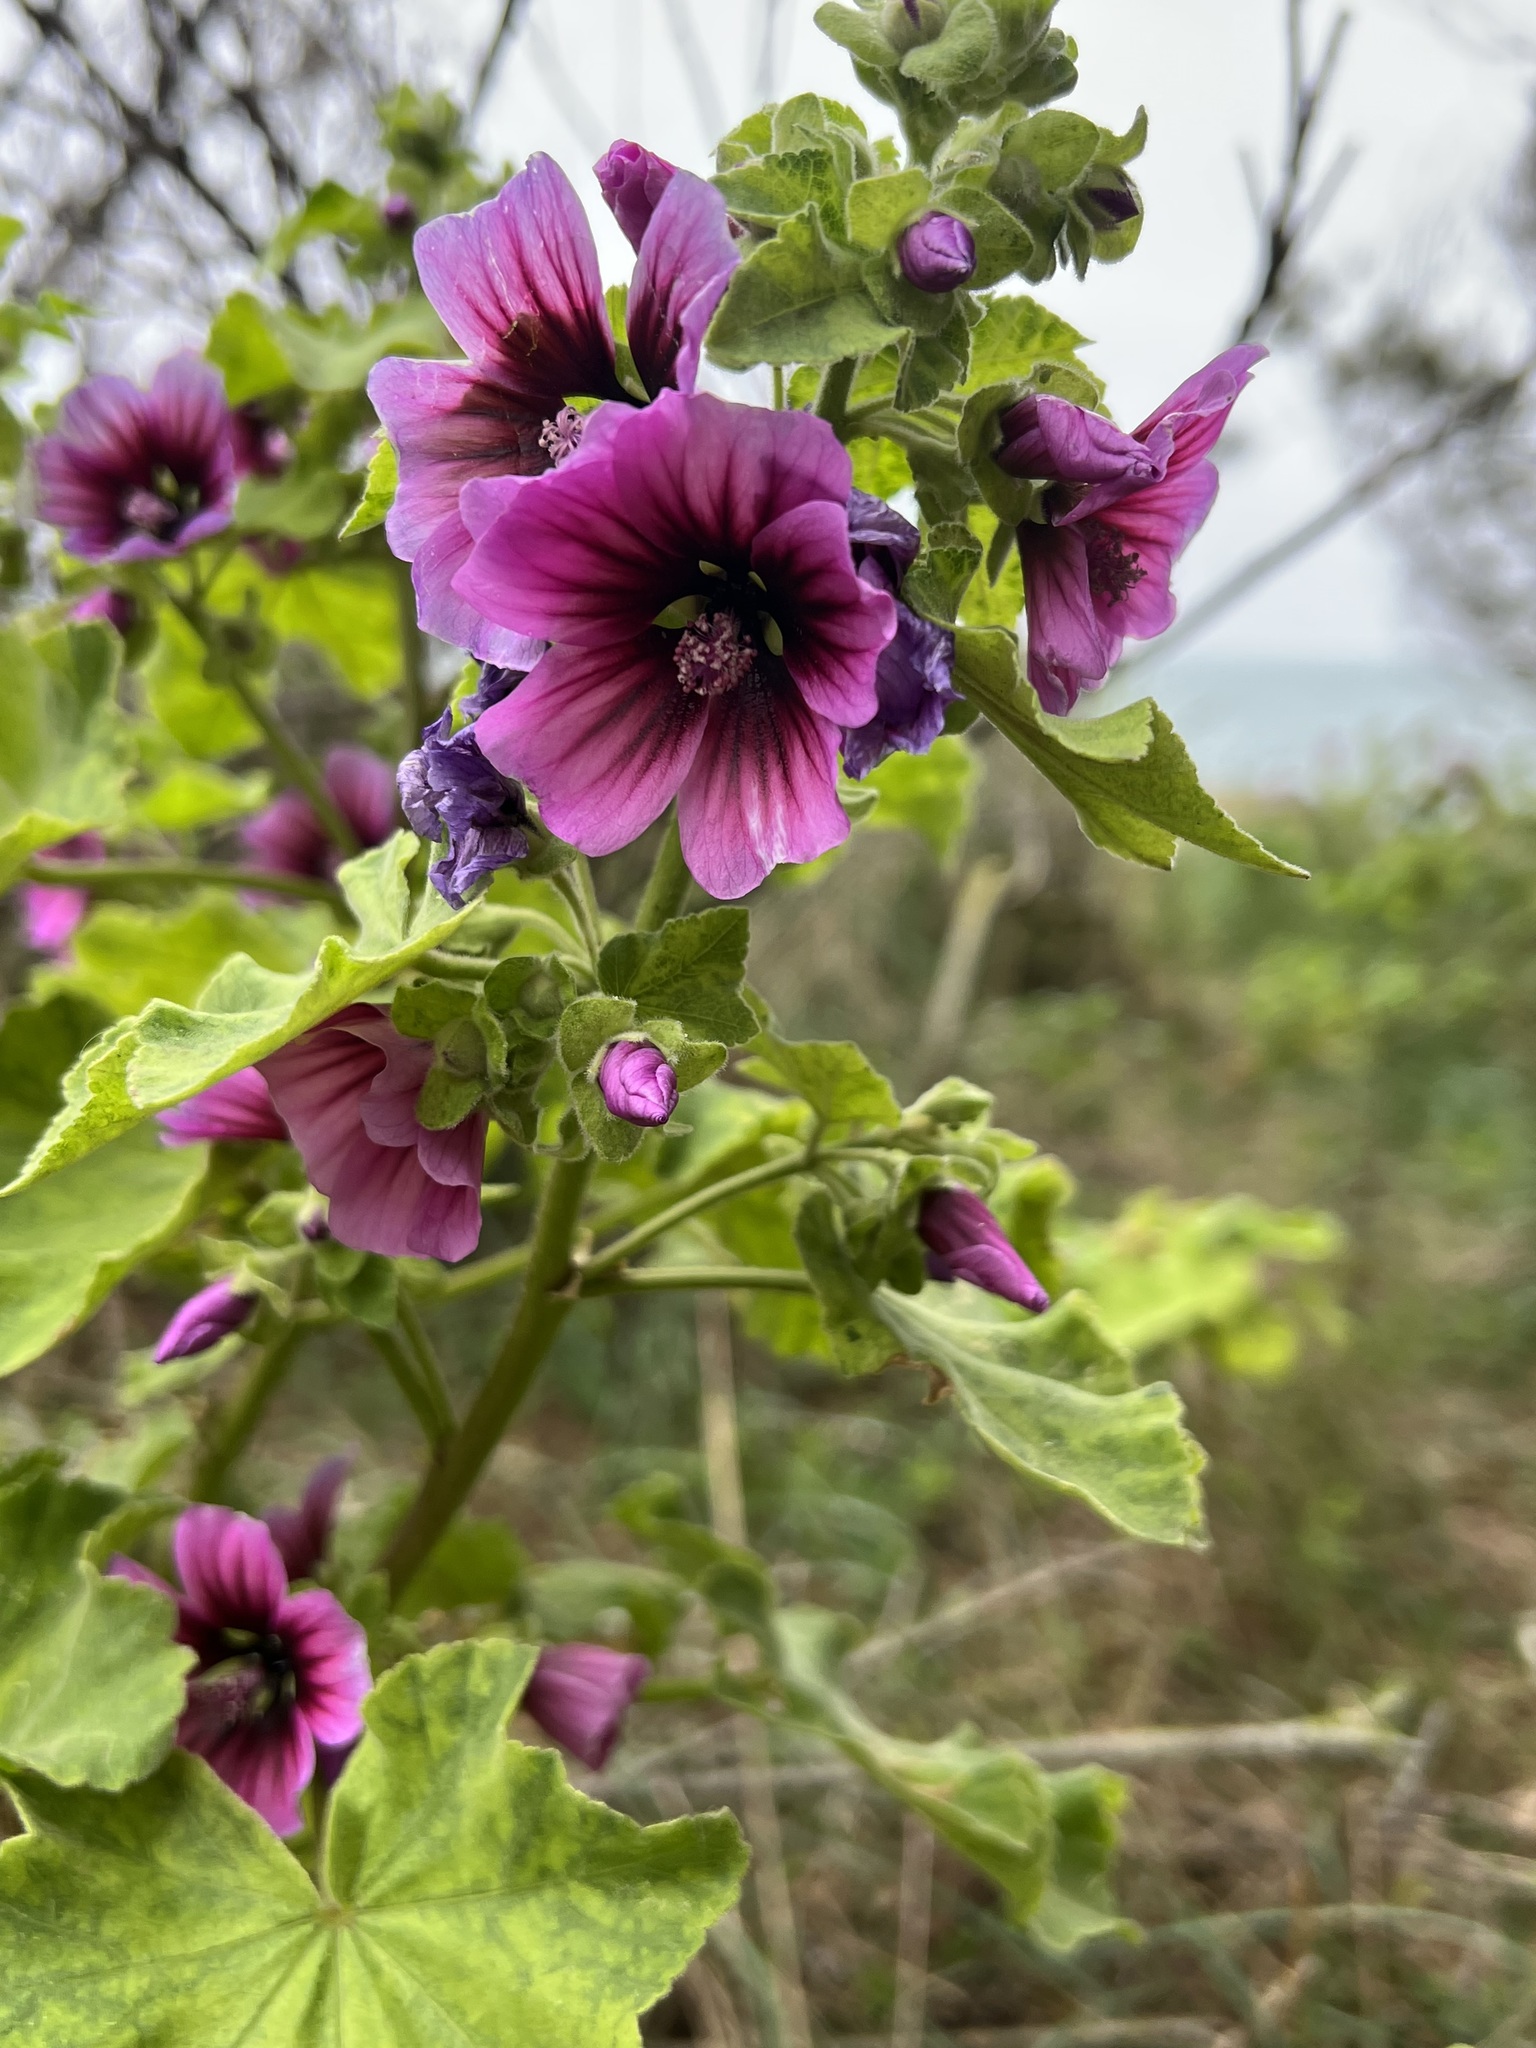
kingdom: Plantae
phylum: Tracheophyta
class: Magnoliopsida
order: Malvales
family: Malvaceae
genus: Malva
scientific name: Malva arborea
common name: Tree mallow
